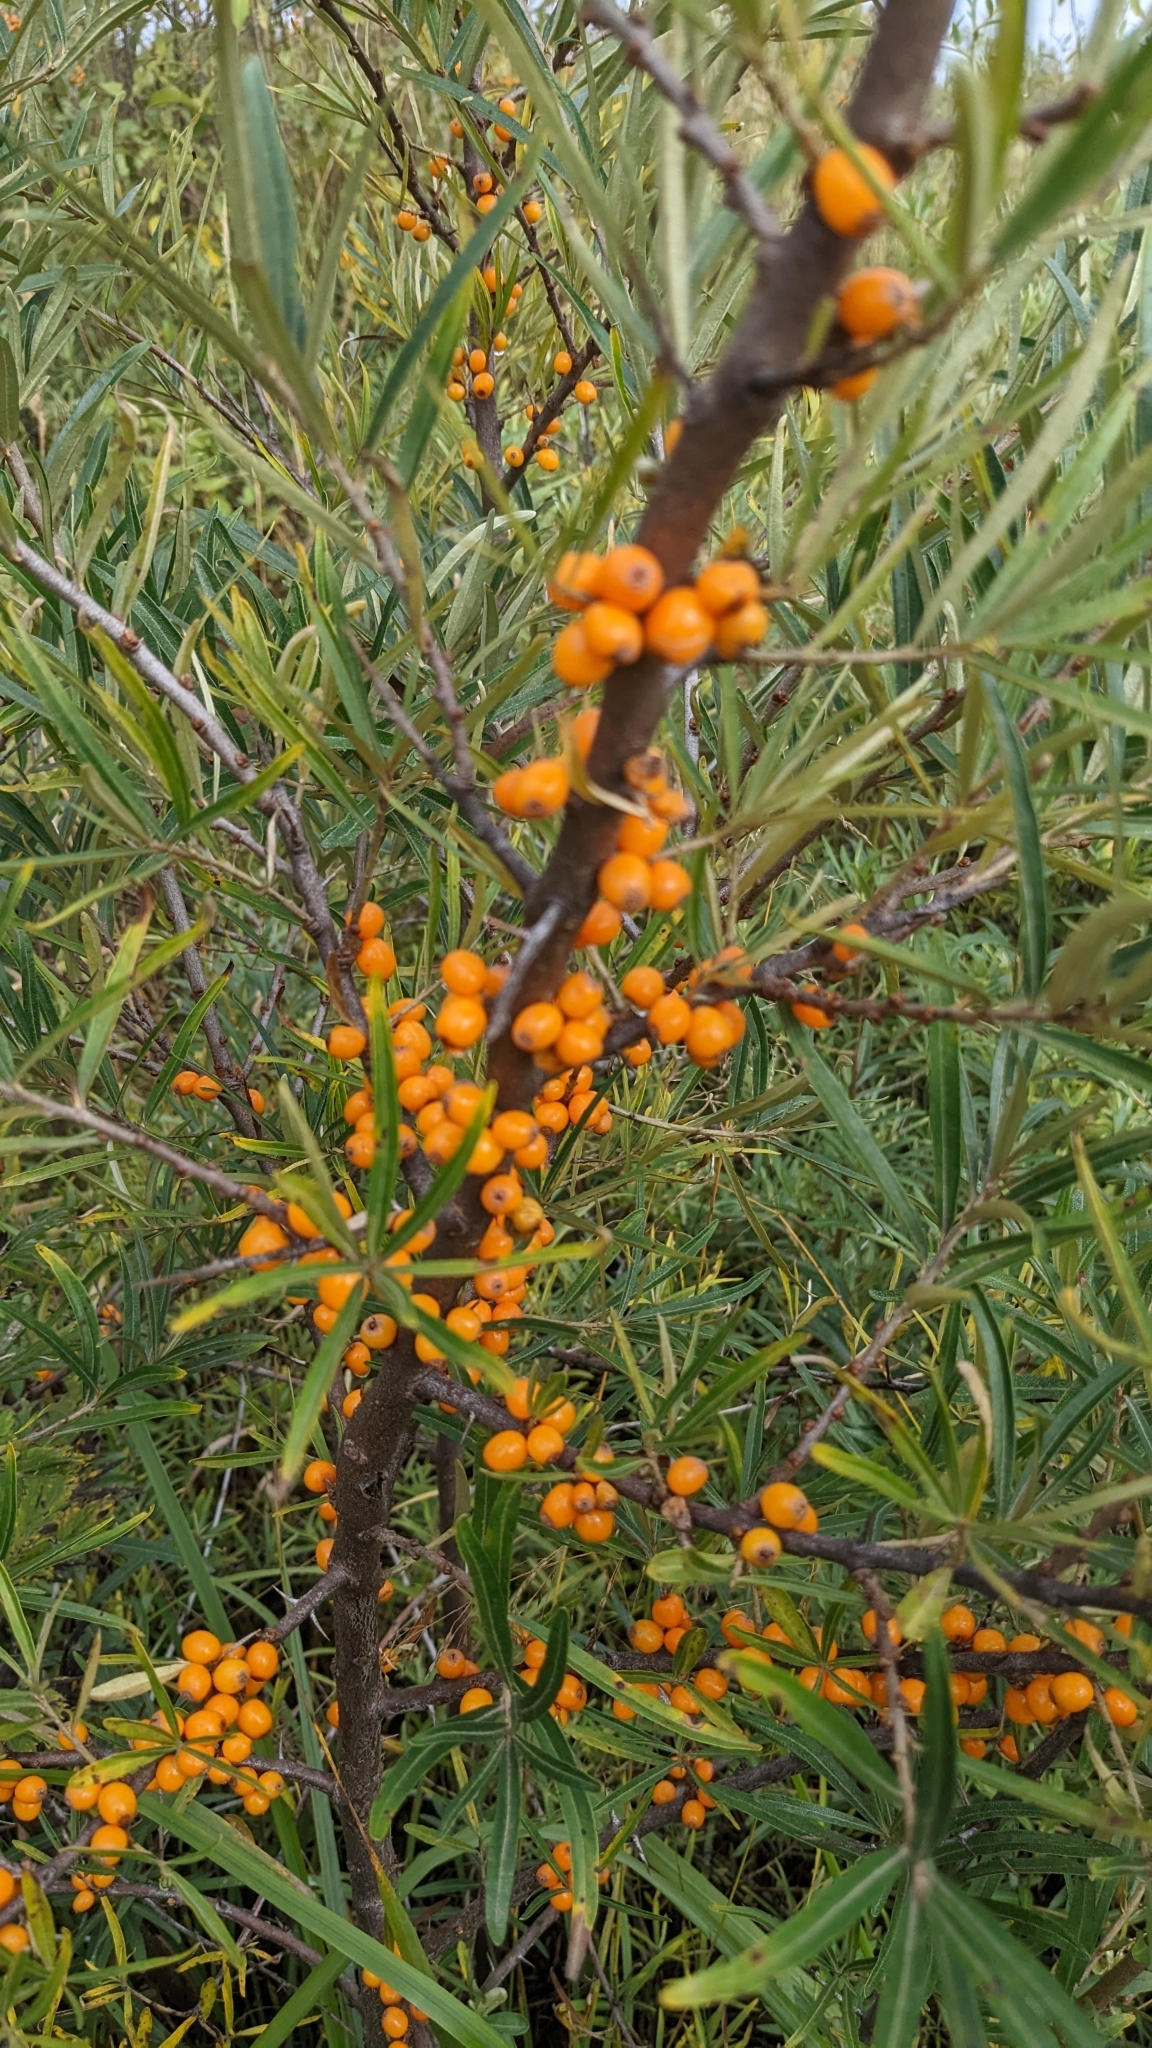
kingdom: Plantae
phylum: Tracheophyta
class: Magnoliopsida
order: Rosales
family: Elaeagnaceae
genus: Hippophae
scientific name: Hippophae rhamnoides
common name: Sea-buckthorn
